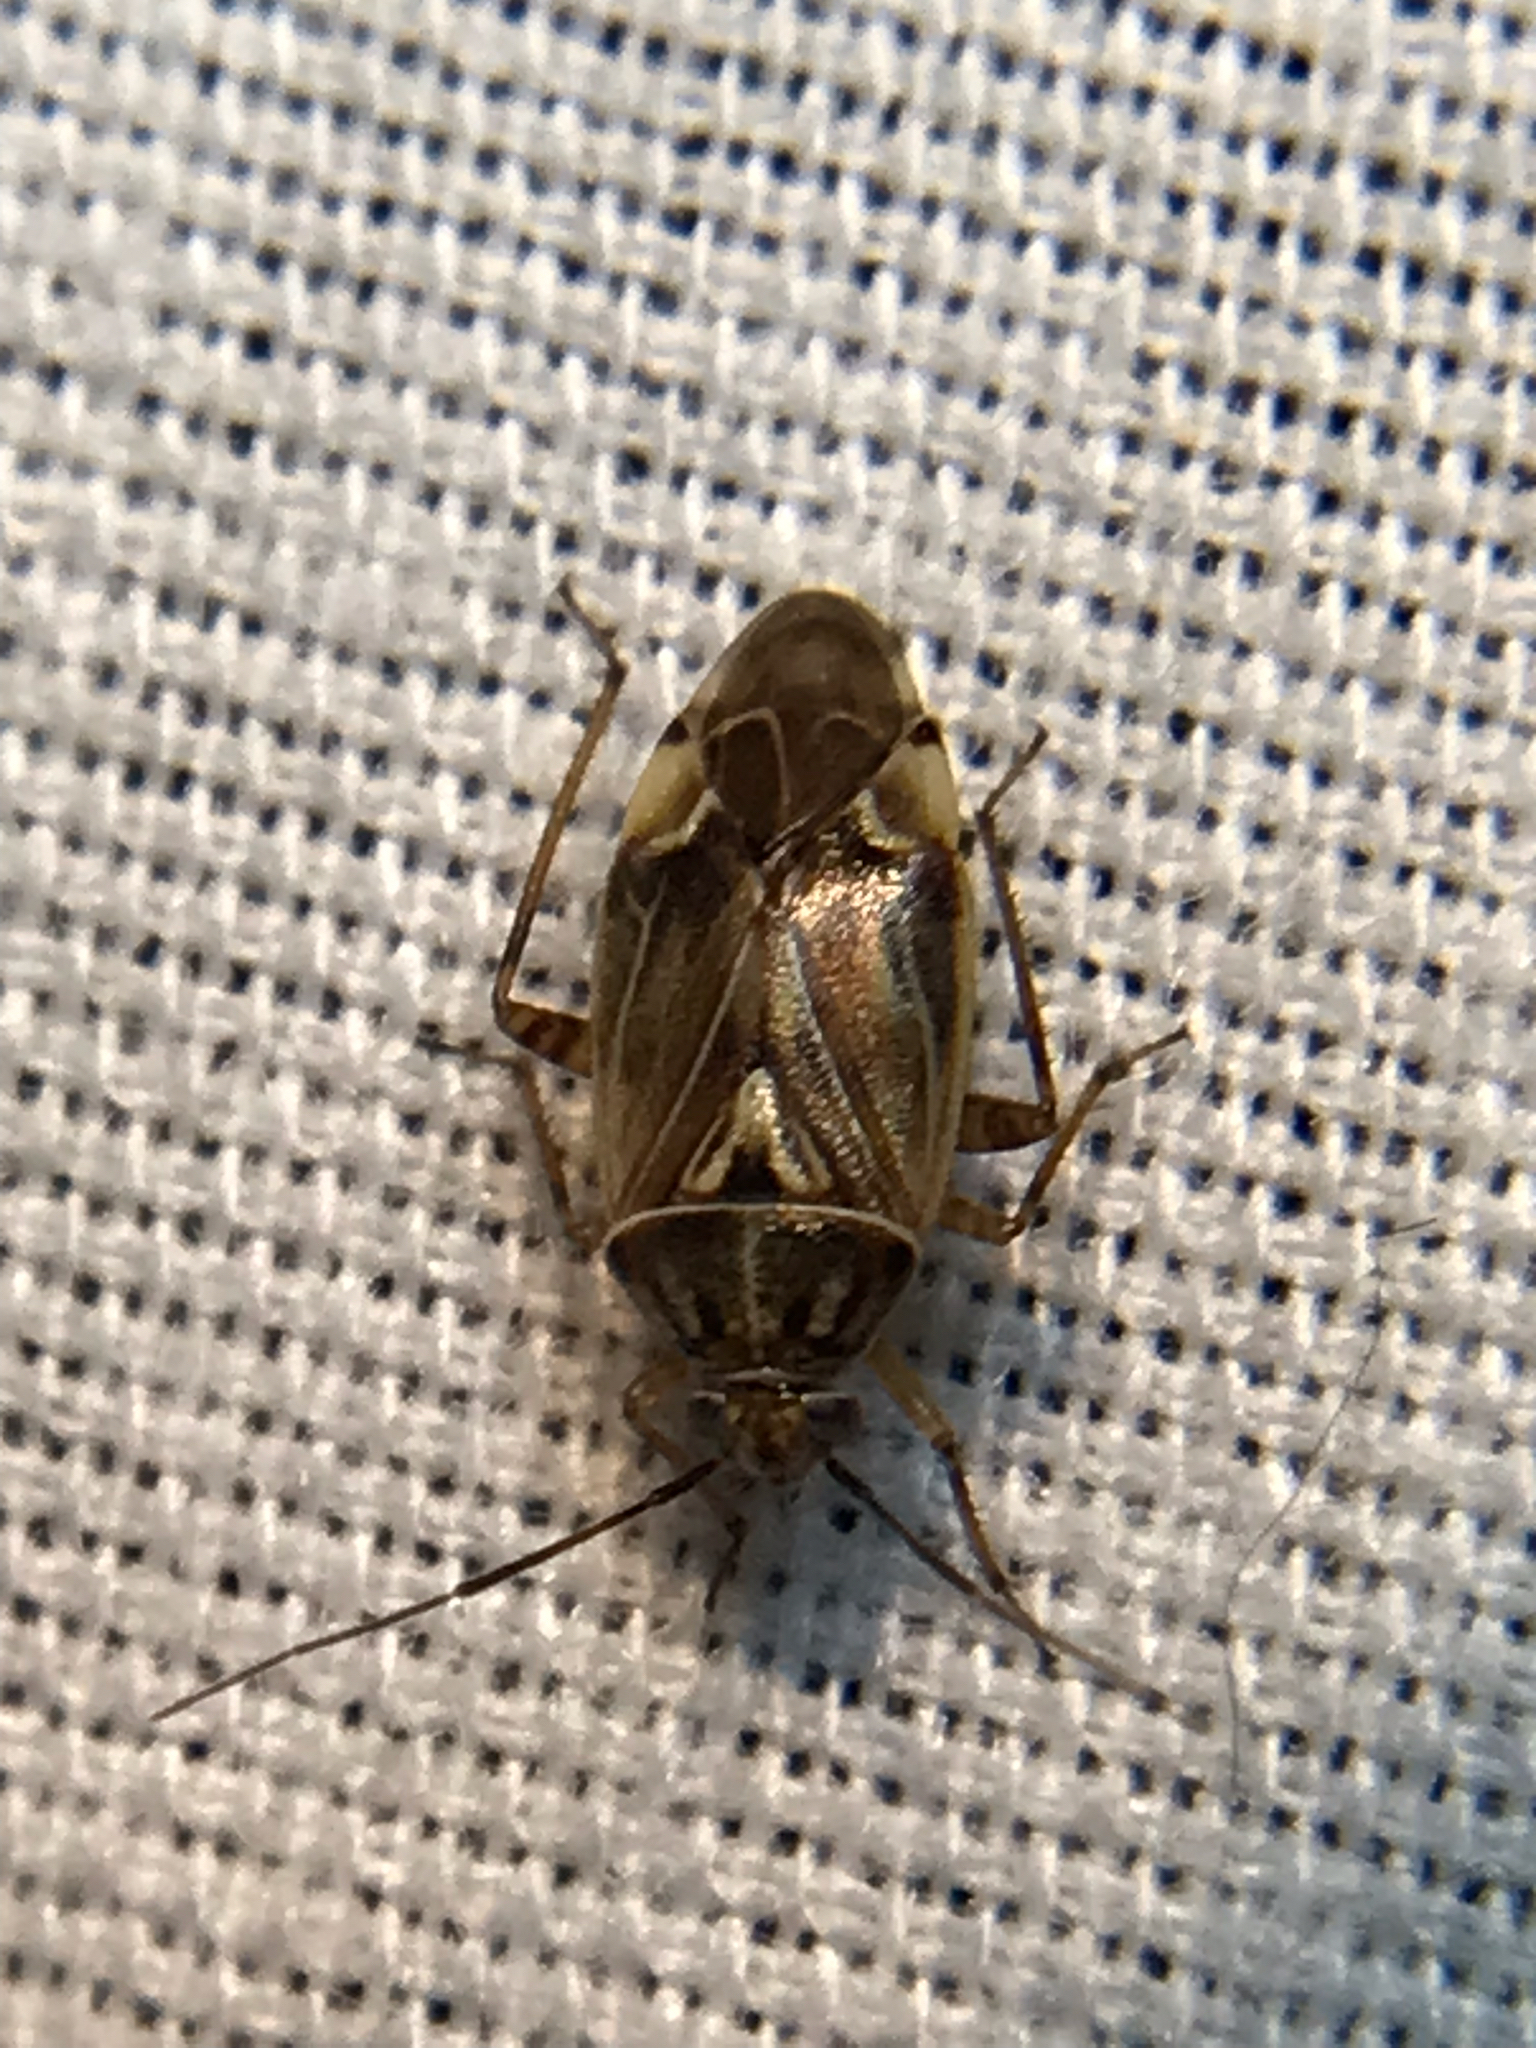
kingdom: Animalia
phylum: Arthropoda
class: Insecta
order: Hemiptera
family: Miridae
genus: Lygus
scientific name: Lygus lineolaris
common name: North american tarnished plant bug
